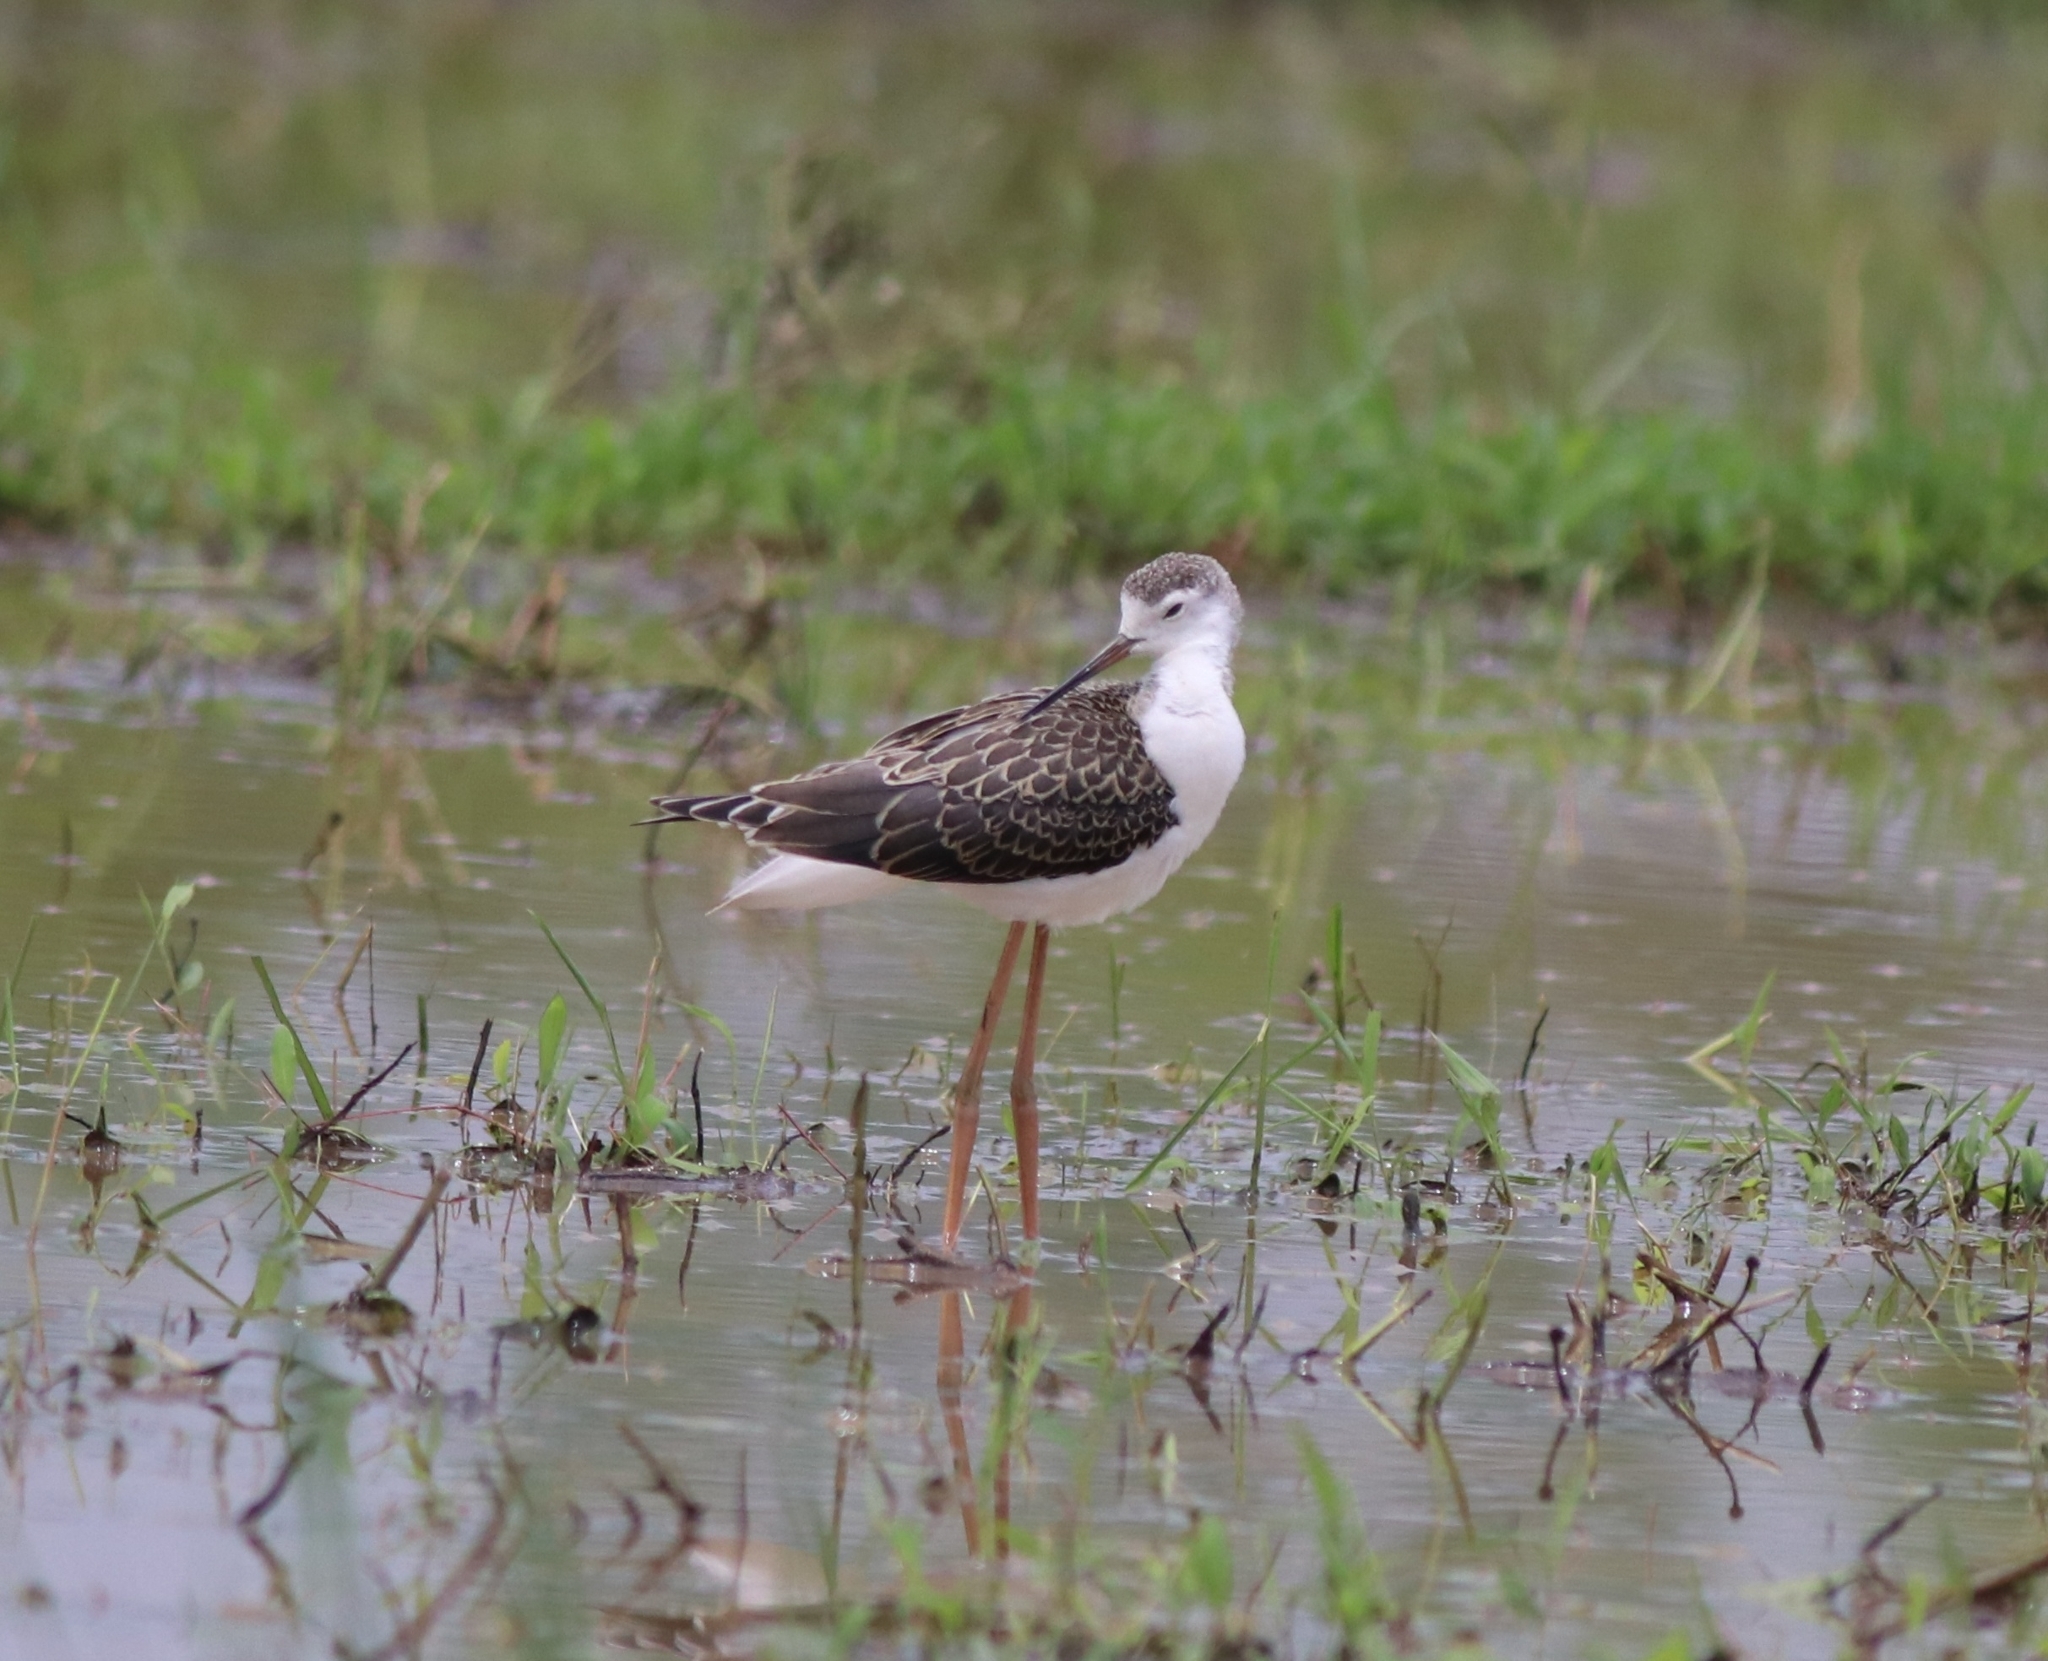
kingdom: Animalia
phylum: Chordata
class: Aves
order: Charadriiformes
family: Recurvirostridae
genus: Himantopus
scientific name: Himantopus himantopus
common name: Black-winged stilt
